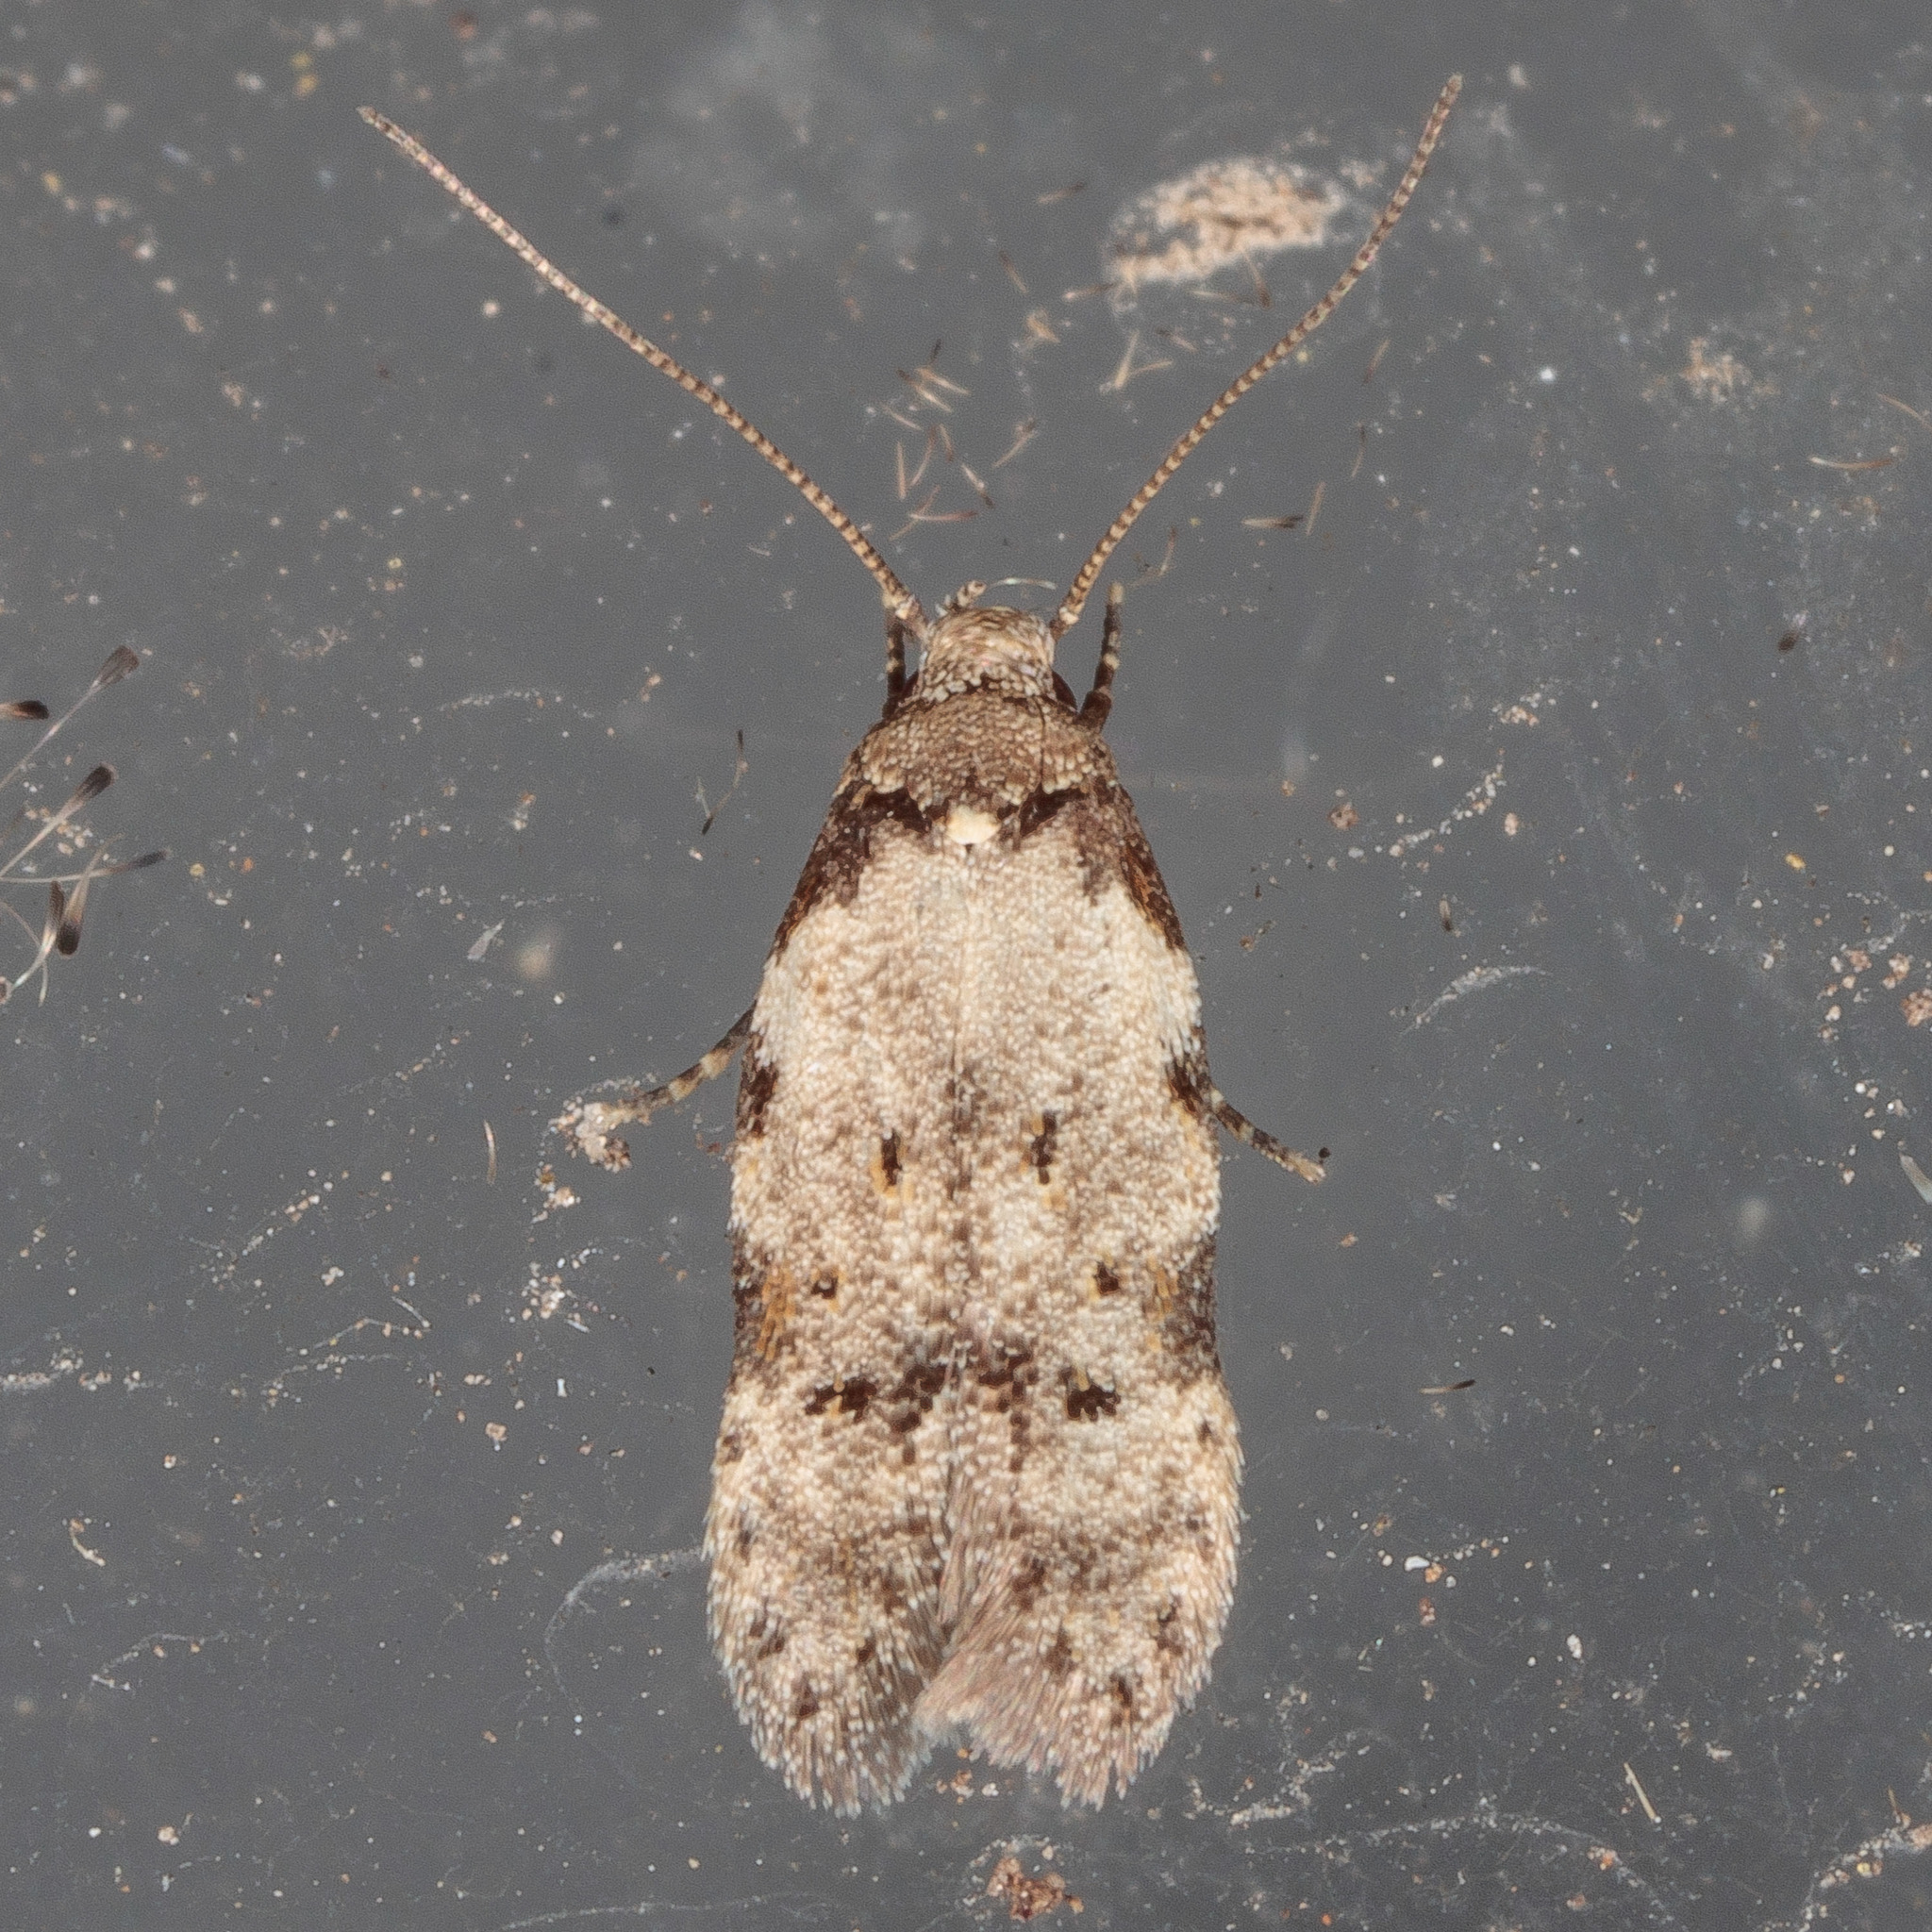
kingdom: Animalia
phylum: Arthropoda
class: Insecta
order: Lepidoptera
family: Autostichidae
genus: Taygete
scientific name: Taygete attributella
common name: Triangle-marked twirler moth
